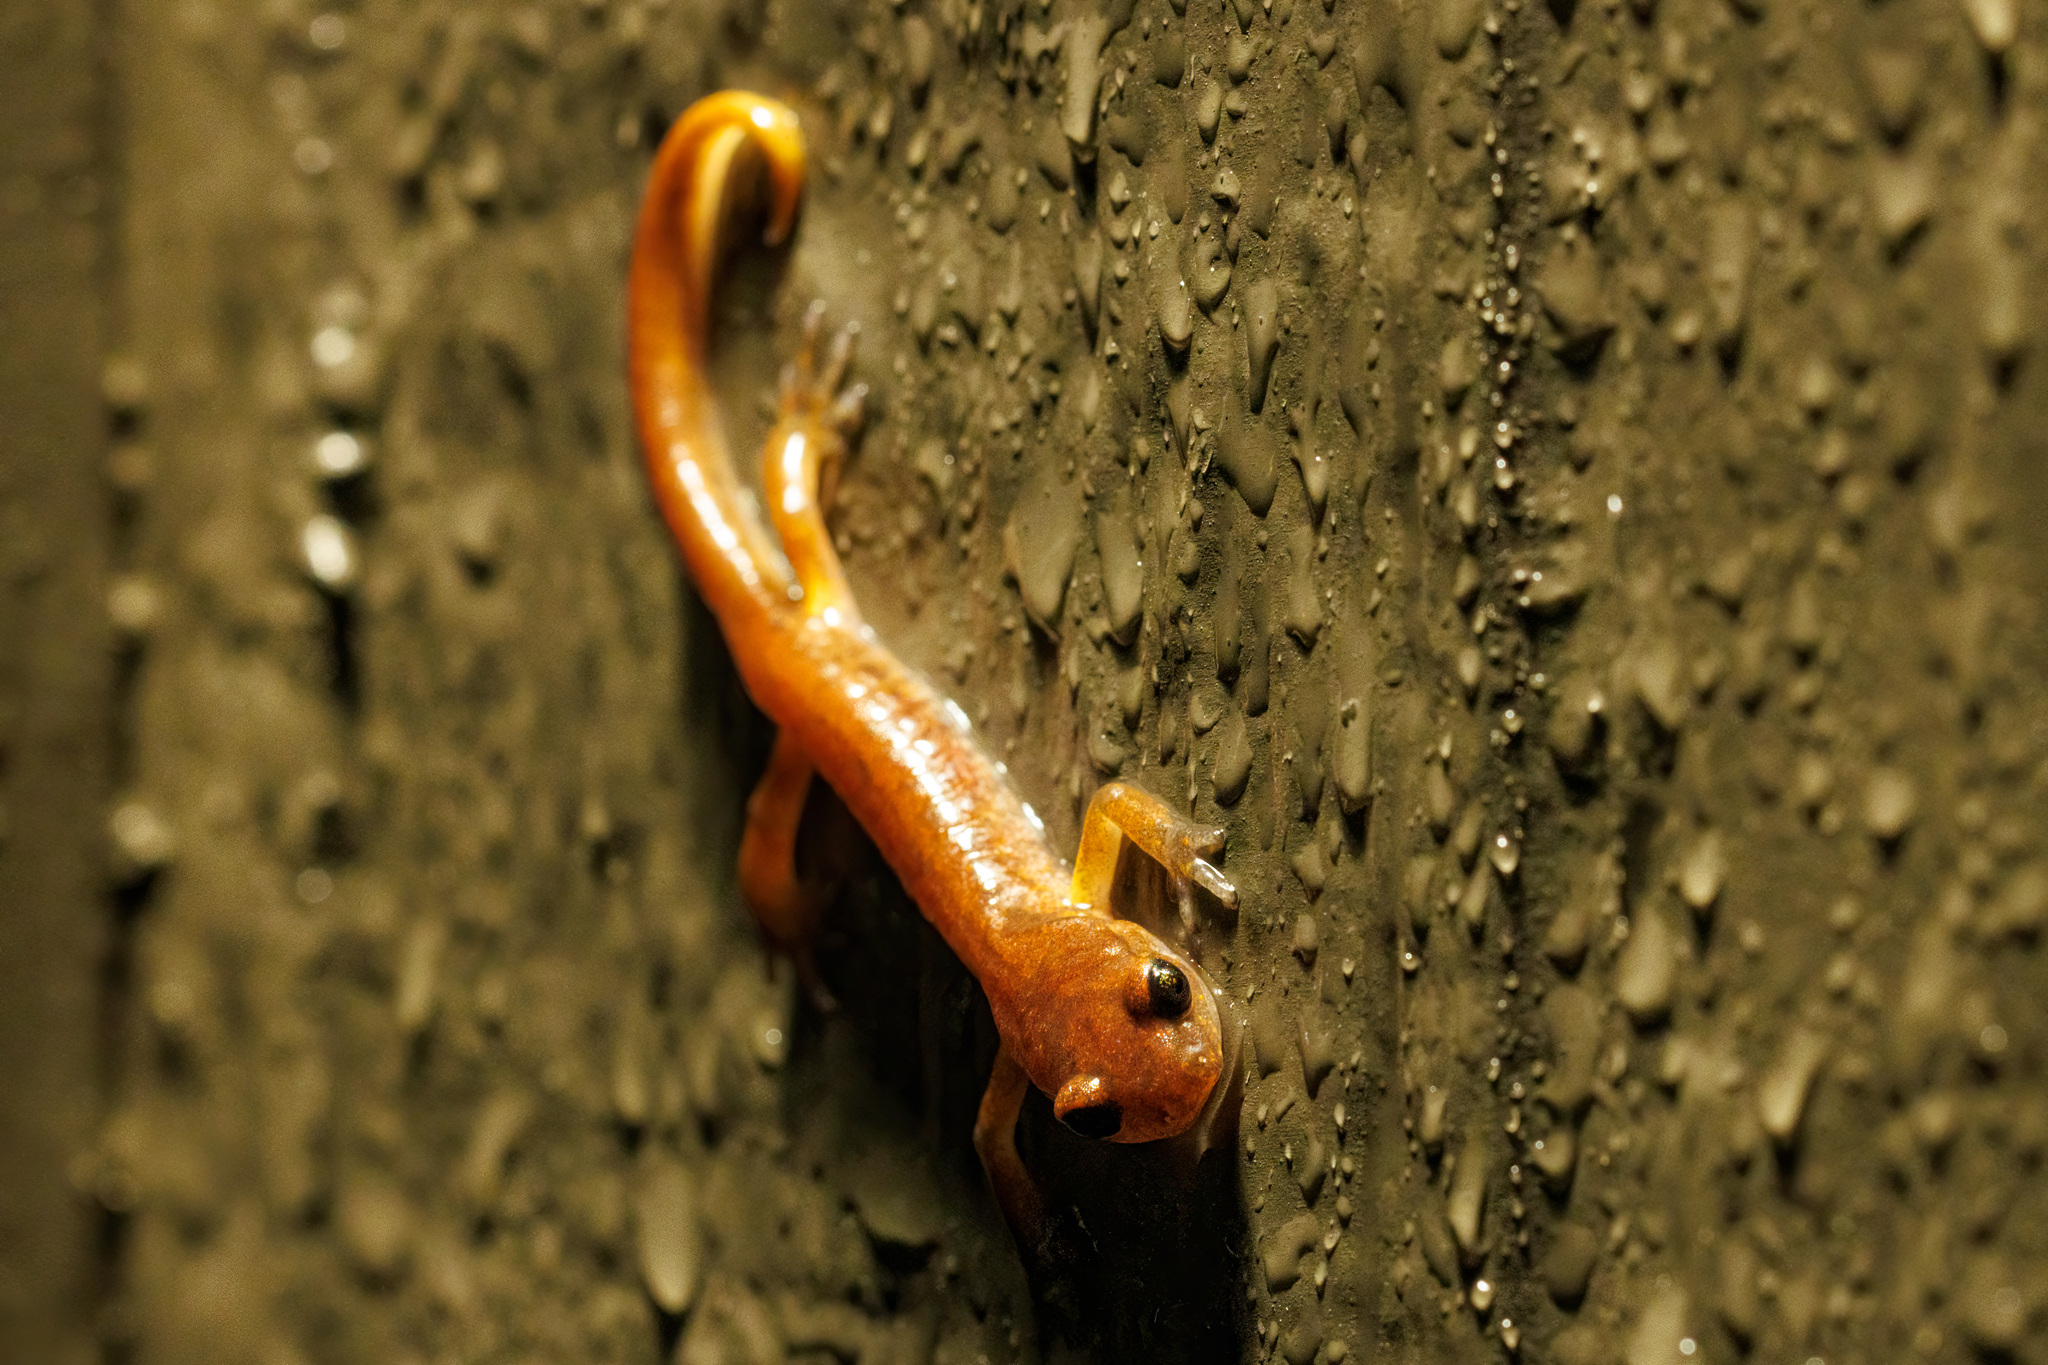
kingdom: Animalia
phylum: Chordata
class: Amphibia
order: Caudata
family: Plethodontidae
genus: Ensatina
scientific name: Ensatina eschscholtzii
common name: Ensatina
